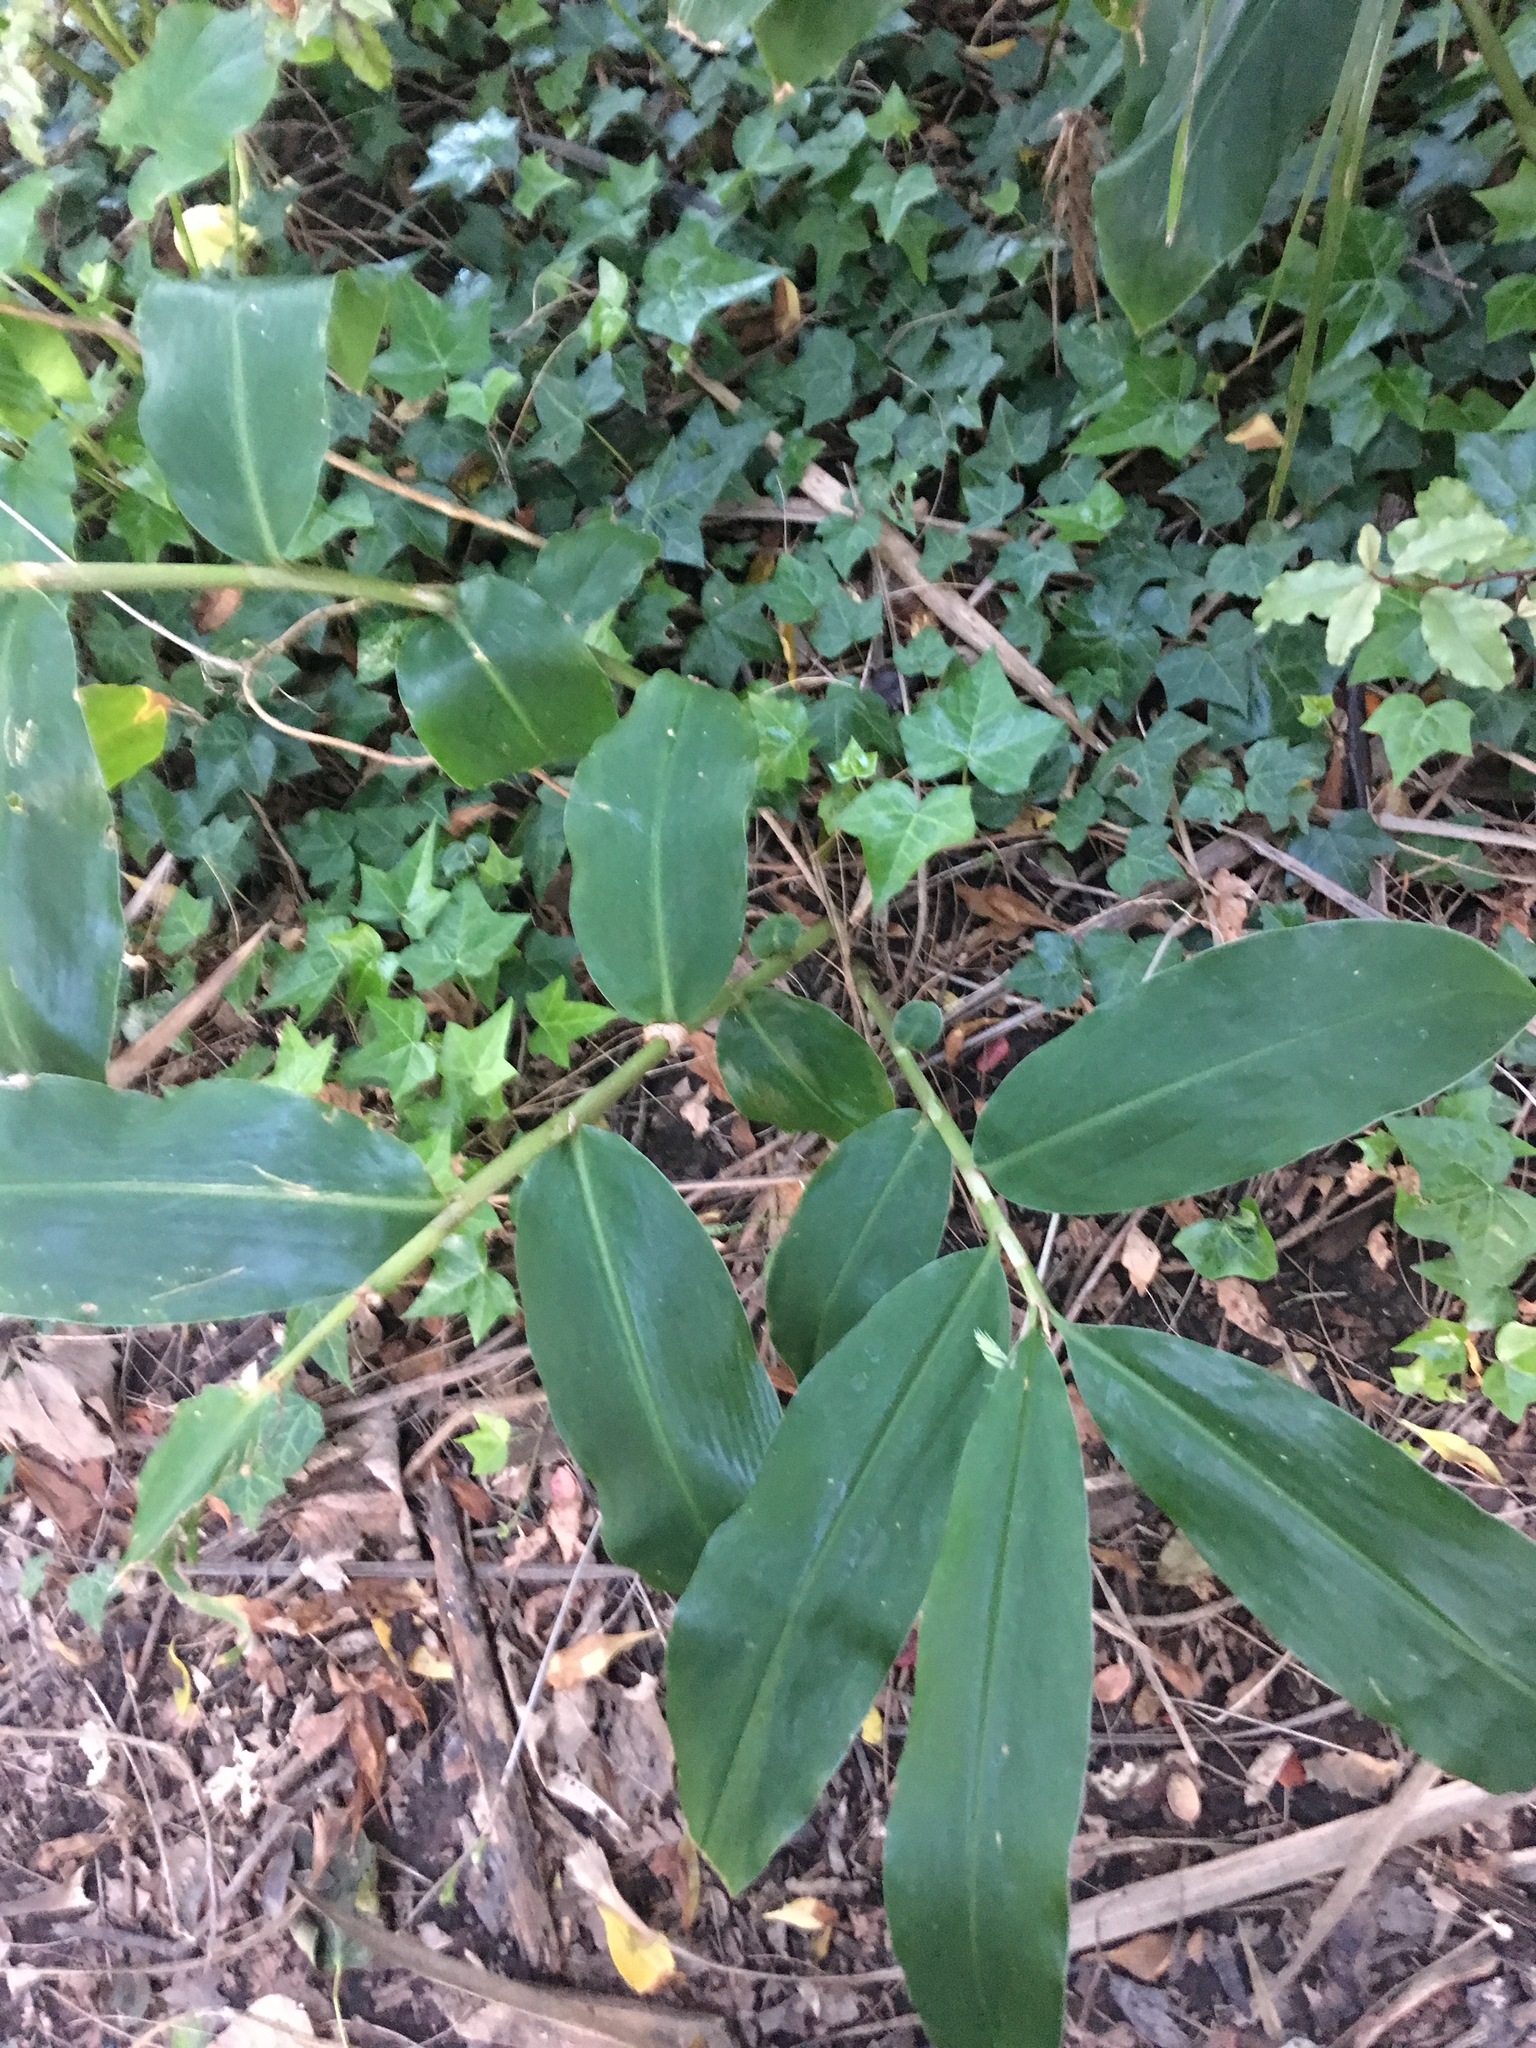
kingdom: Plantae
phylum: Tracheophyta
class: Liliopsida
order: Zingiberales
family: Zingiberaceae
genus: Hedychium
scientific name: Hedychium gardnerianum
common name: Himalayan ginger
